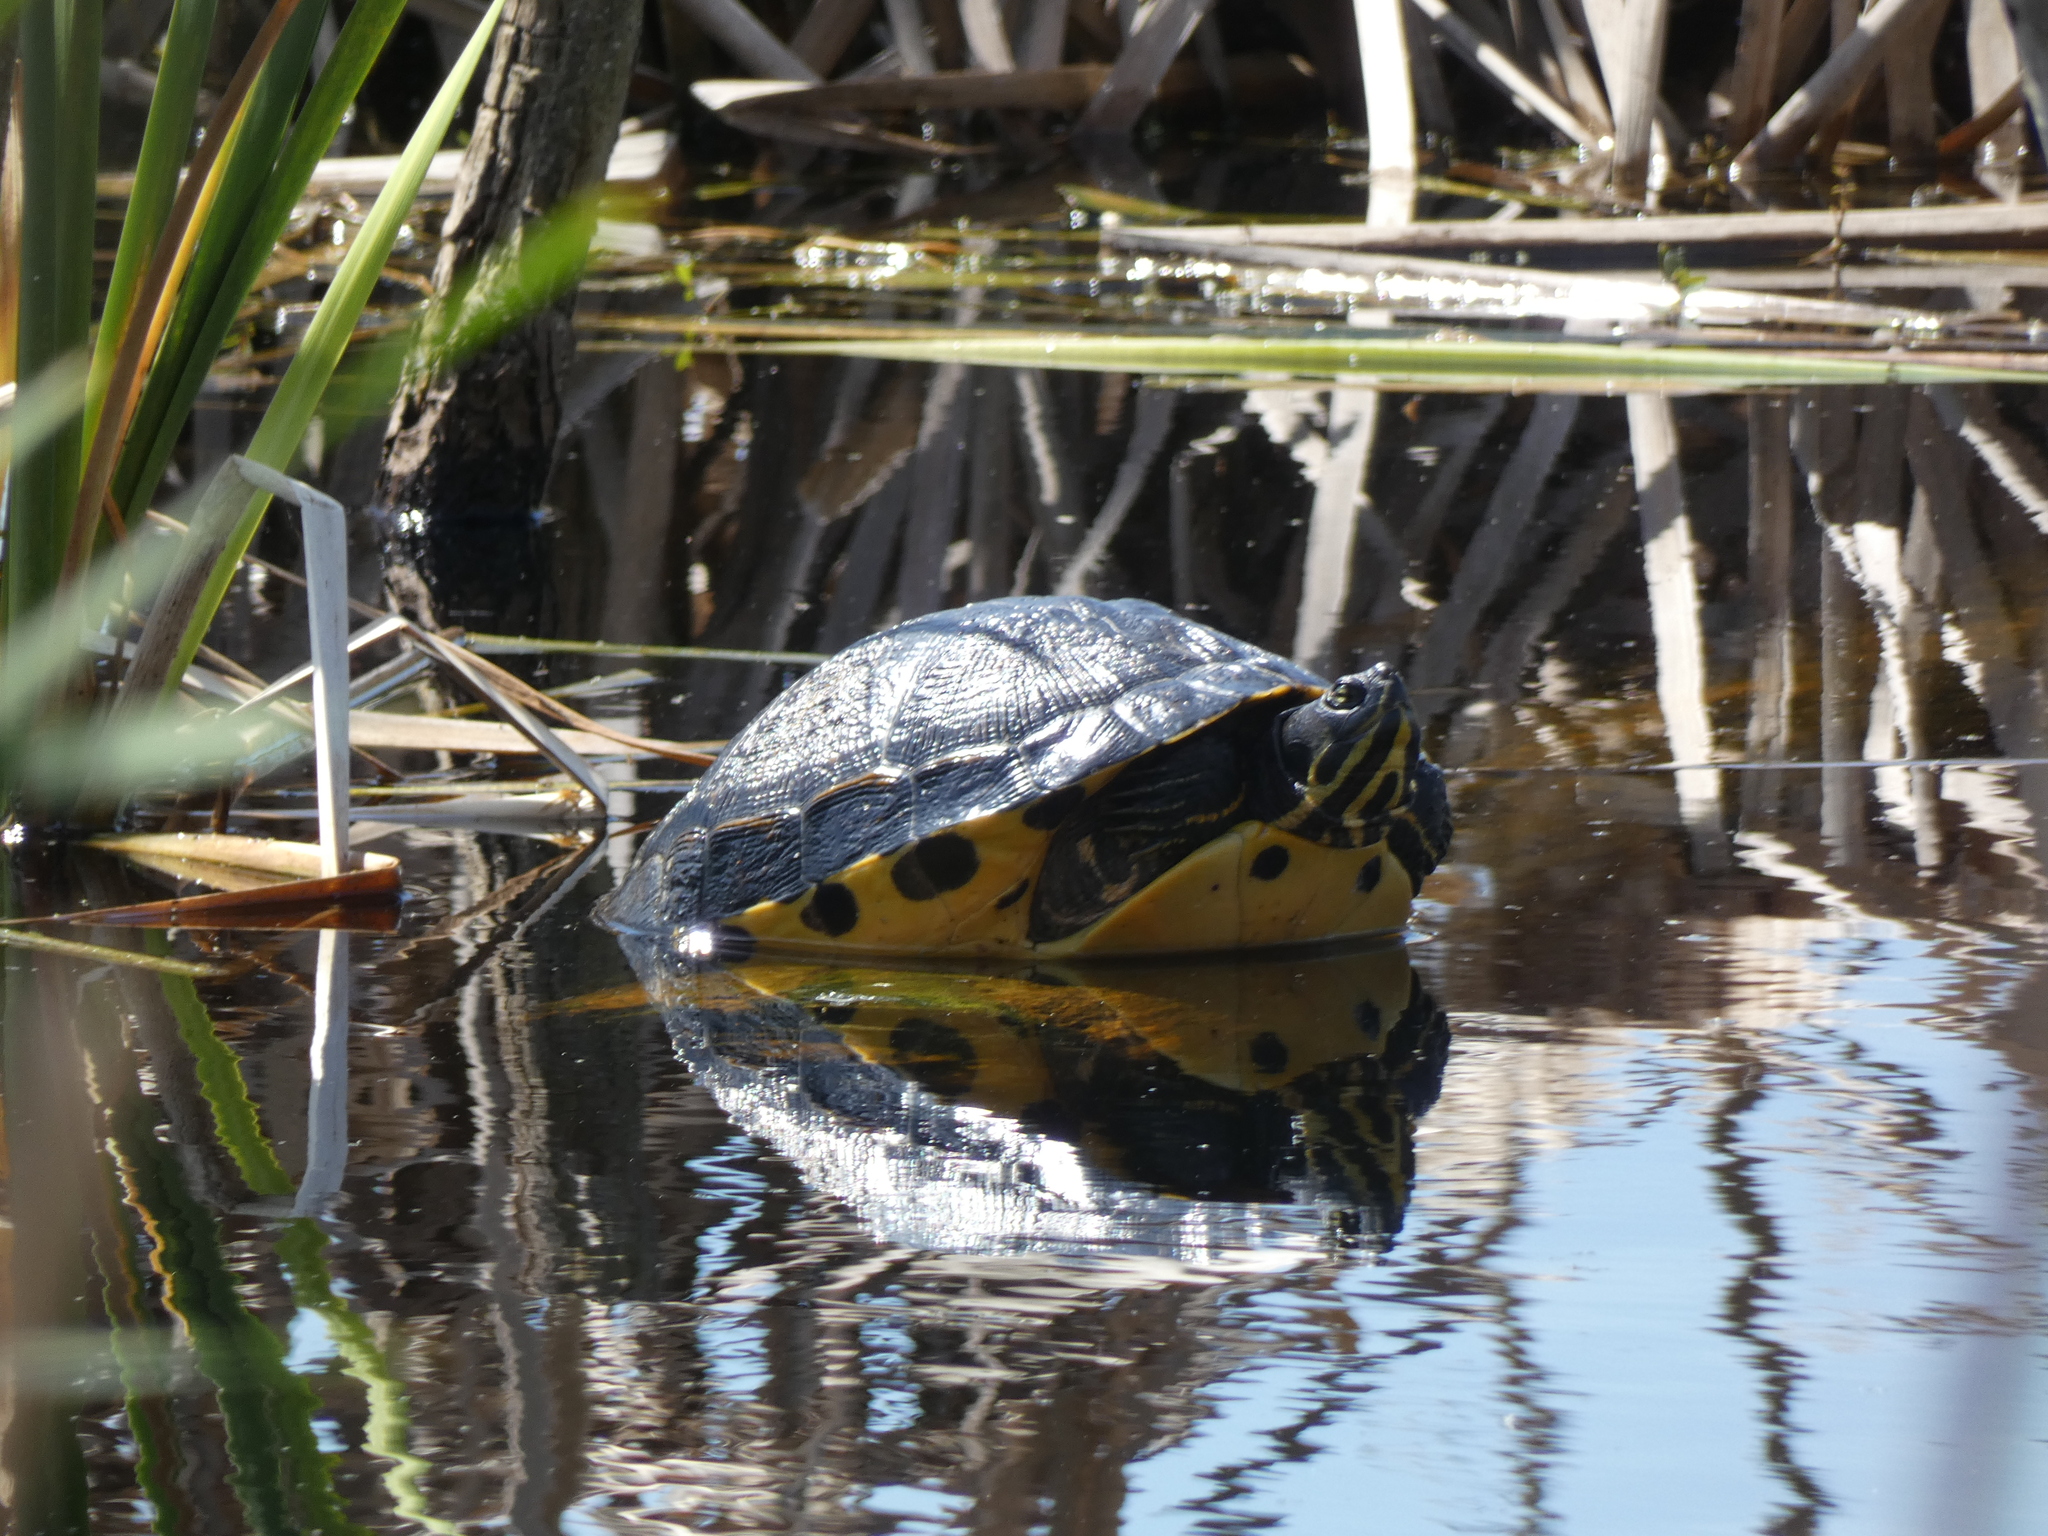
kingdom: Animalia
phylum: Chordata
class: Testudines
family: Emydidae
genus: Trachemys
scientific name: Trachemys scripta
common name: Slider
